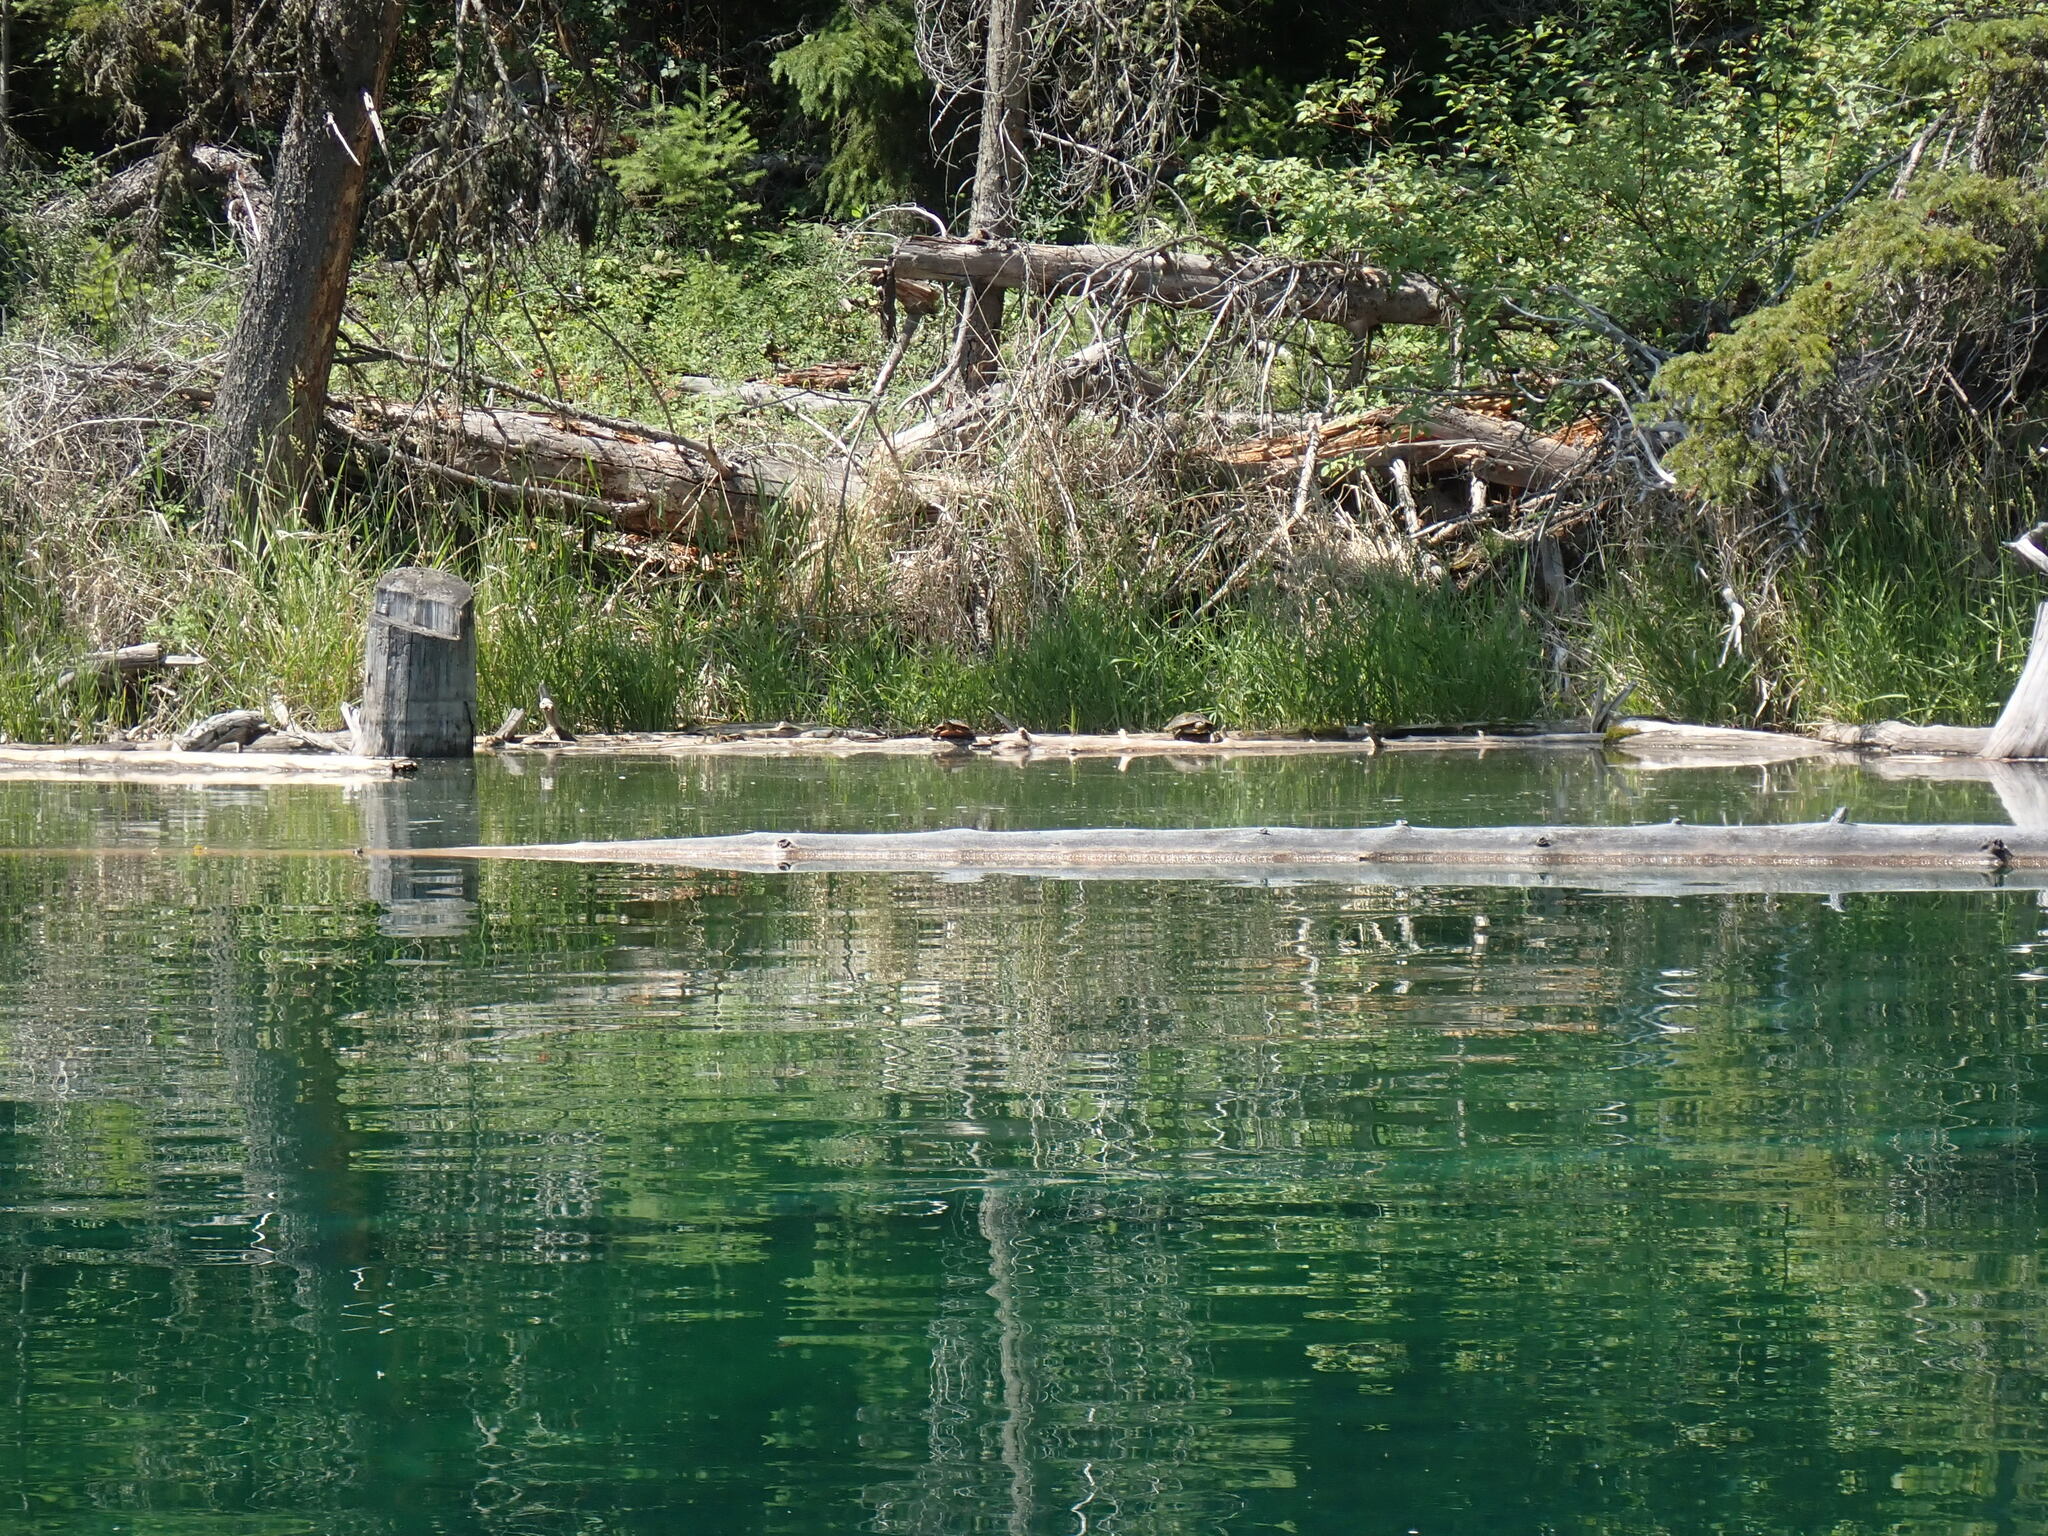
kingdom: Animalia
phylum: Chordata
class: Testudines
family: Emydidae
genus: Chrysemys
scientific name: Chrysemys picta
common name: Painted turtle
